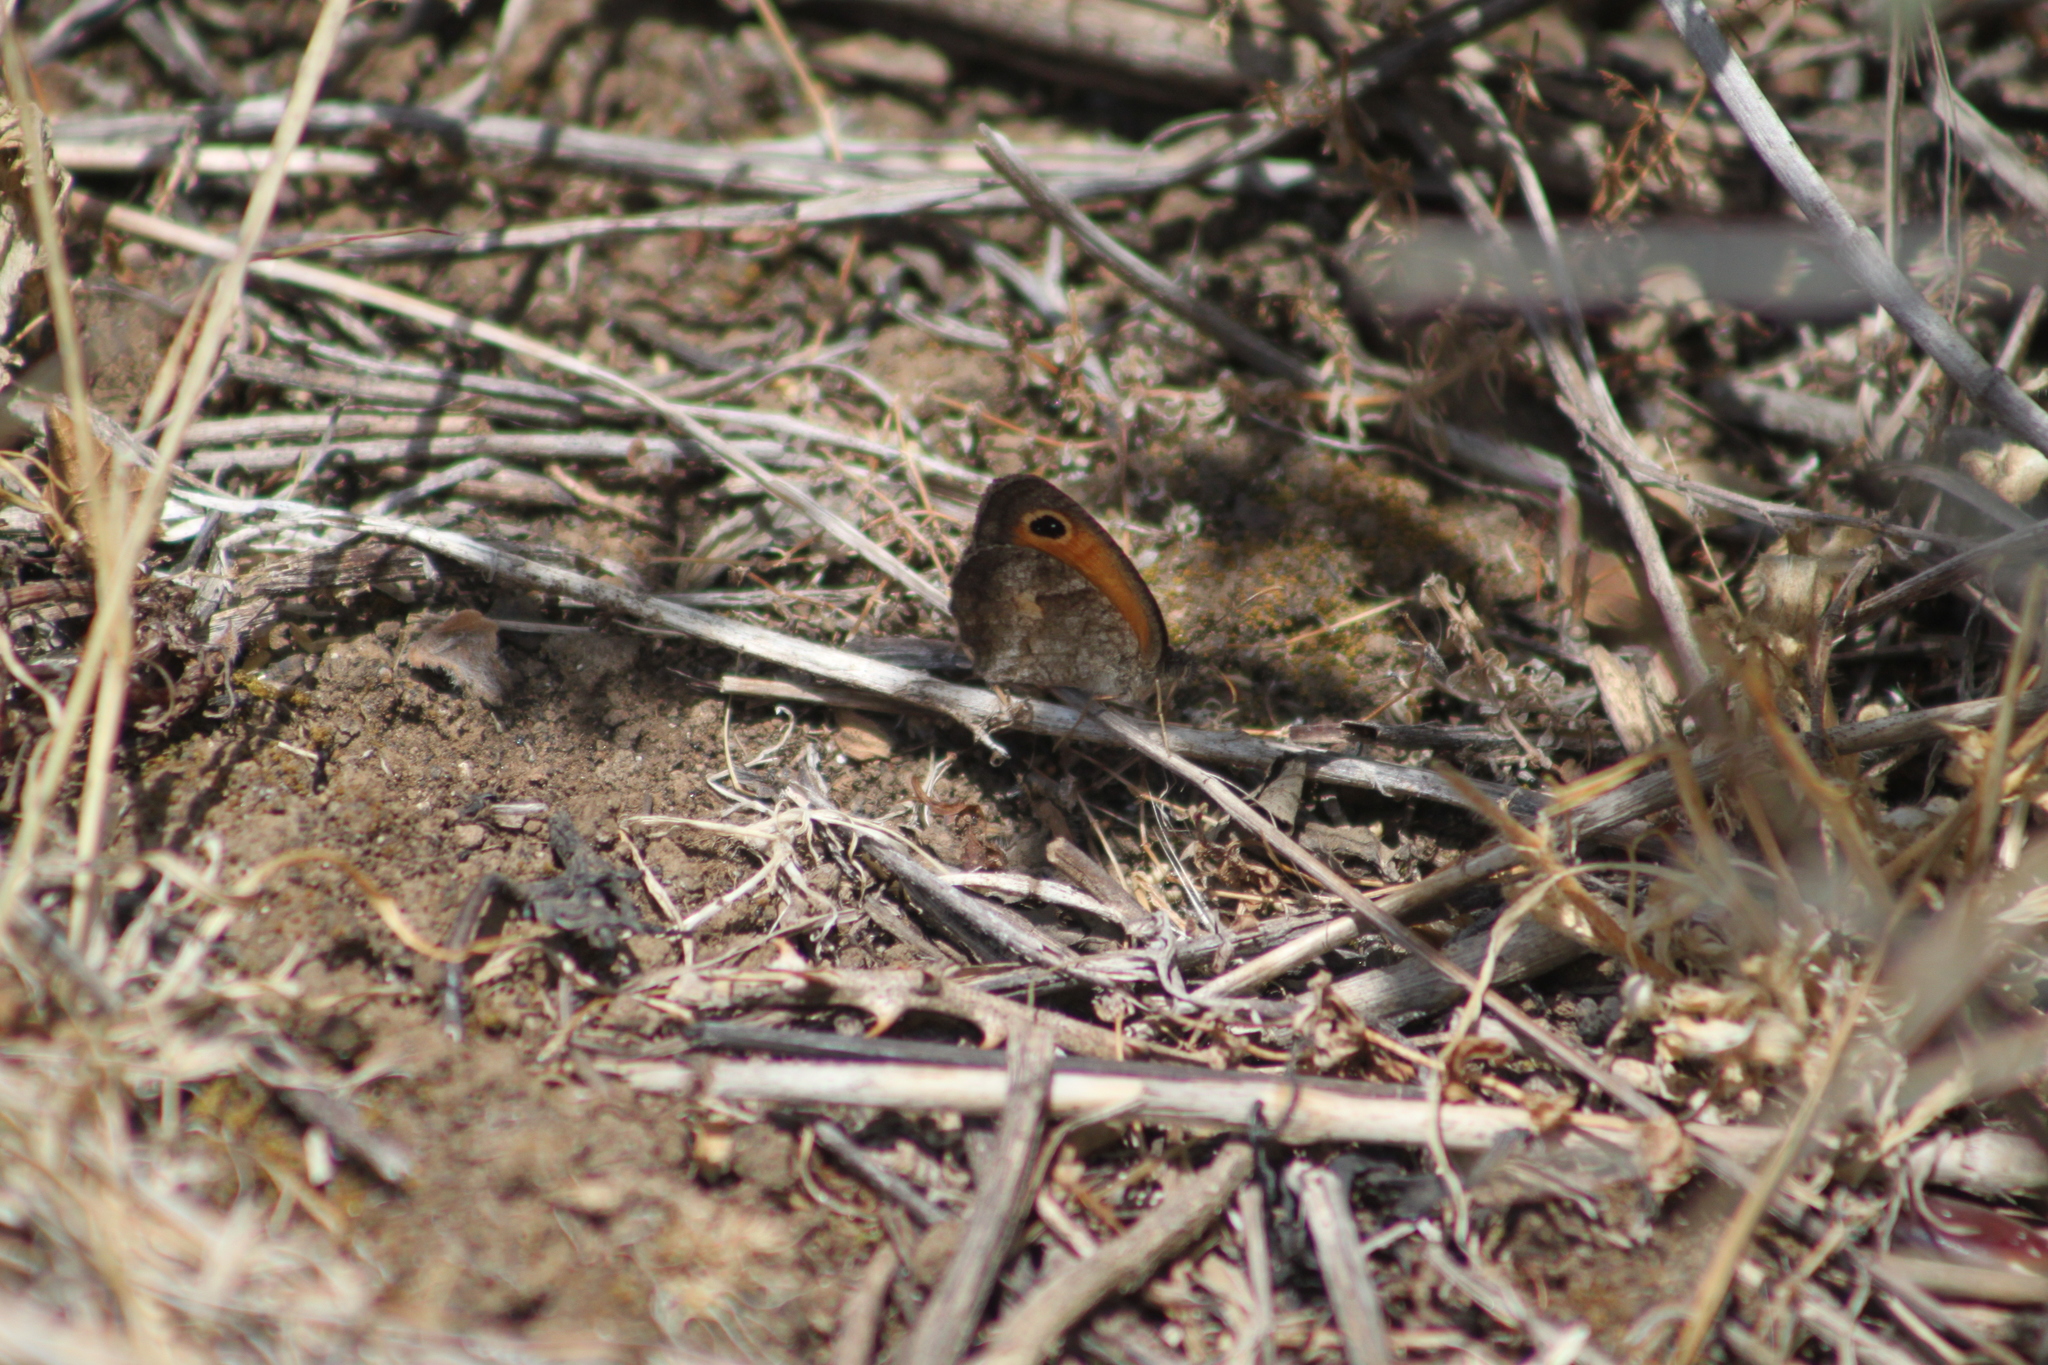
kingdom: Animalia
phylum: Arthropoda
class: Insecta
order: Lepidoptera
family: Nymphalidae
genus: Pyronia
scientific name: Pyronia cecilia
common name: Southern gatekeeper
